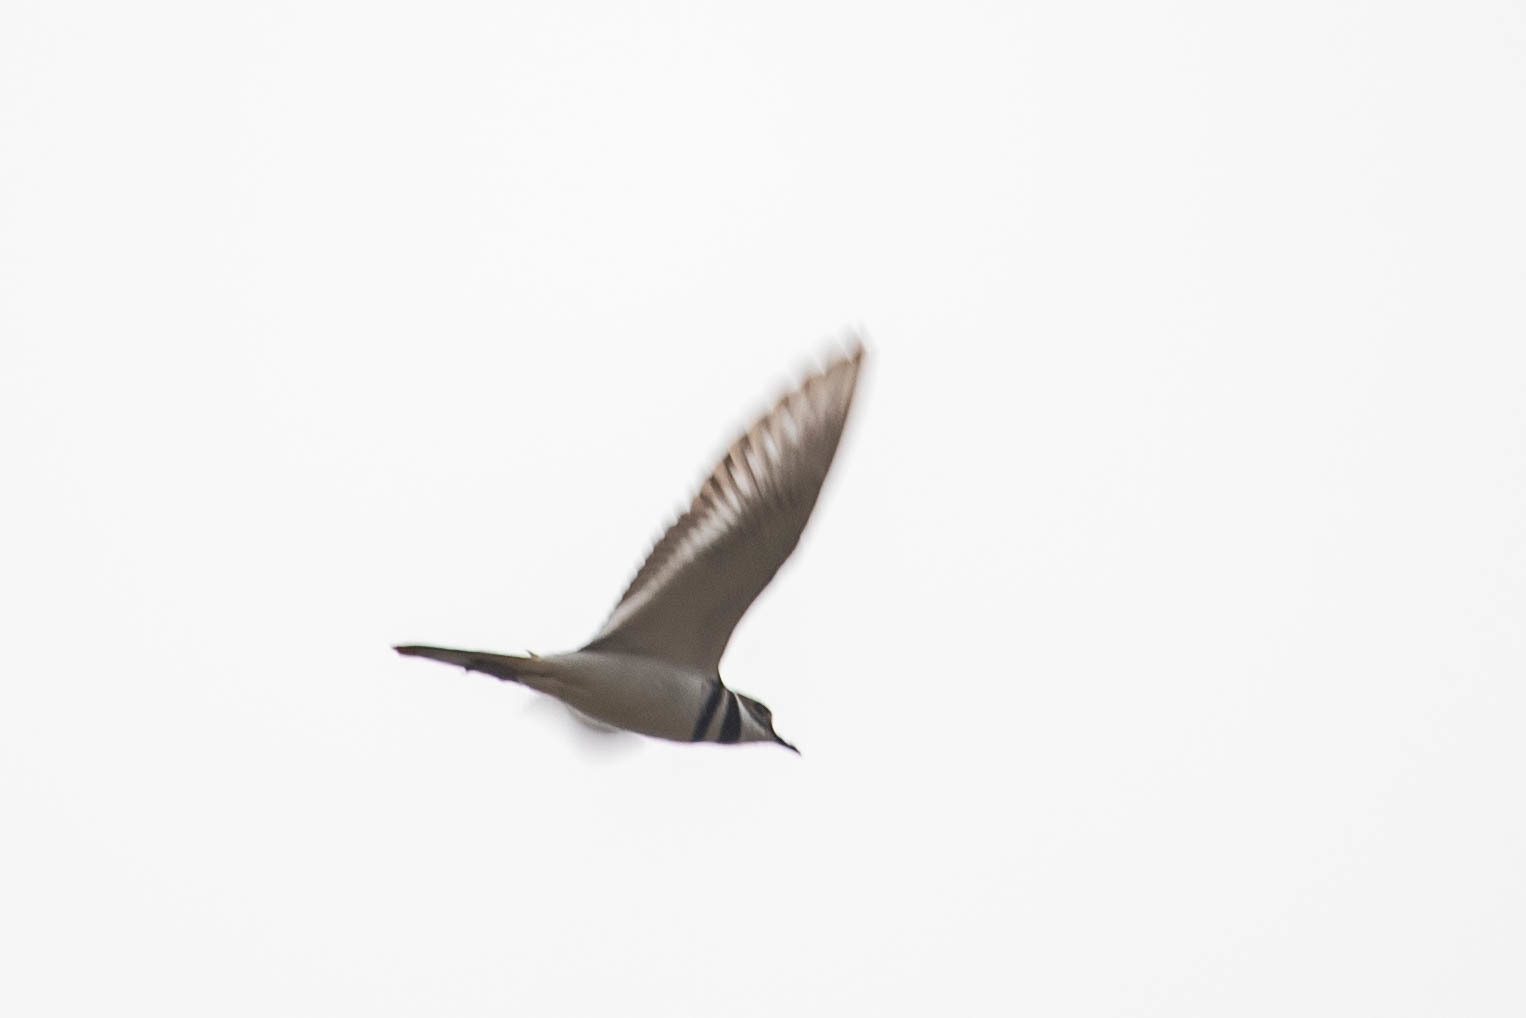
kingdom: Animalia
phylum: Chordata
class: Aves
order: Charadriiformes
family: Charadriidae
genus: Charadrius
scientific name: Charadrius vociferus
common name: Killdeer
